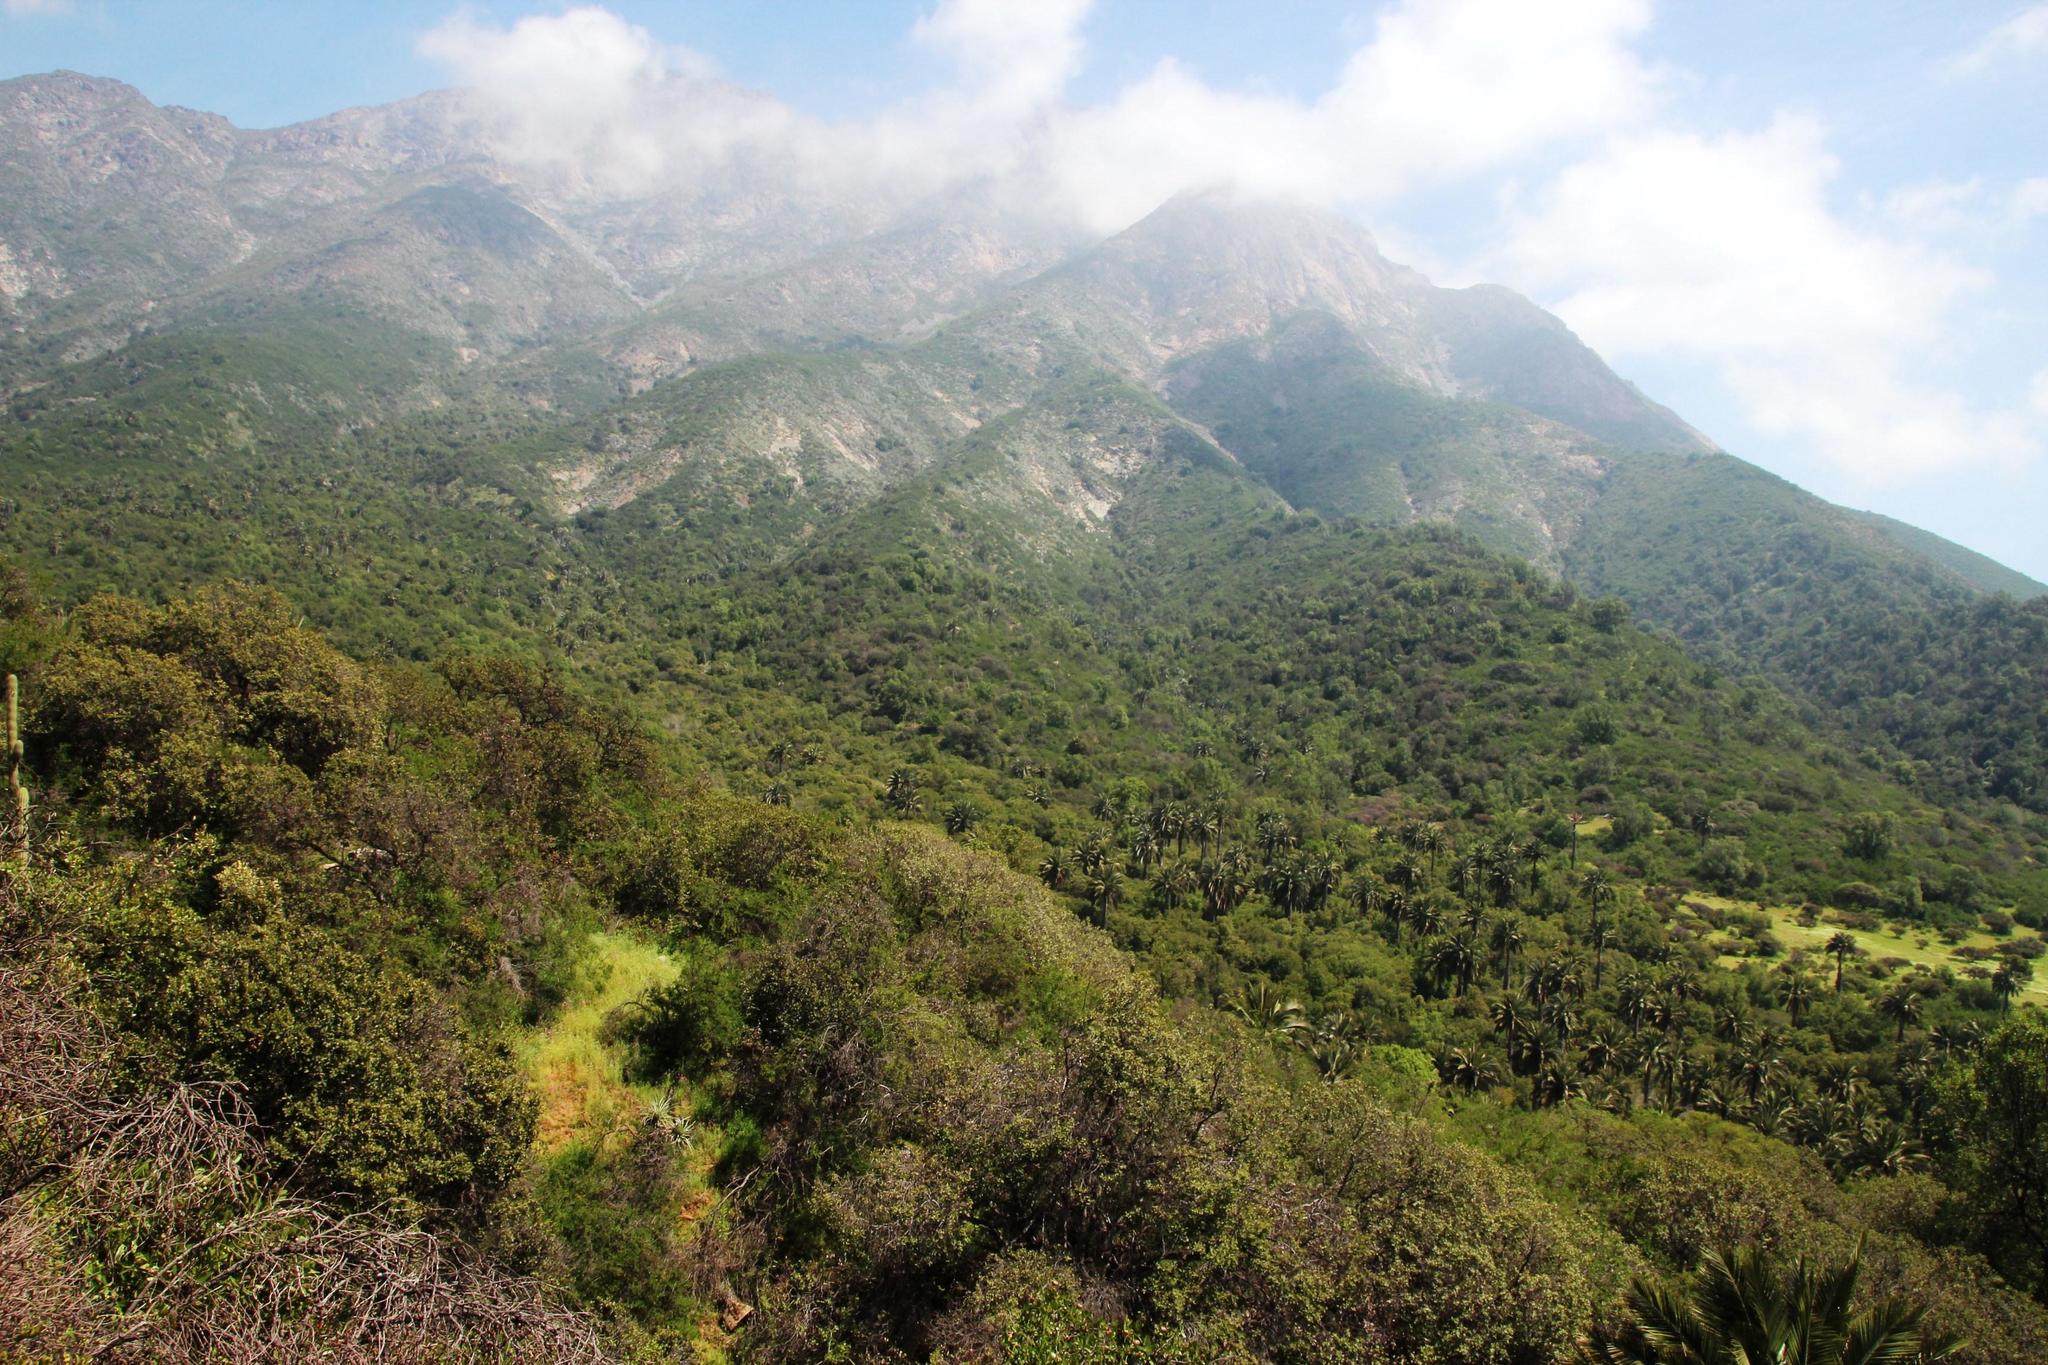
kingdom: Plantae
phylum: Tracheophyta
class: Liliopsida
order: Arecales
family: Arecaceae
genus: Jubaea
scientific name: Jubaea chilensis
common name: Coquito palm
